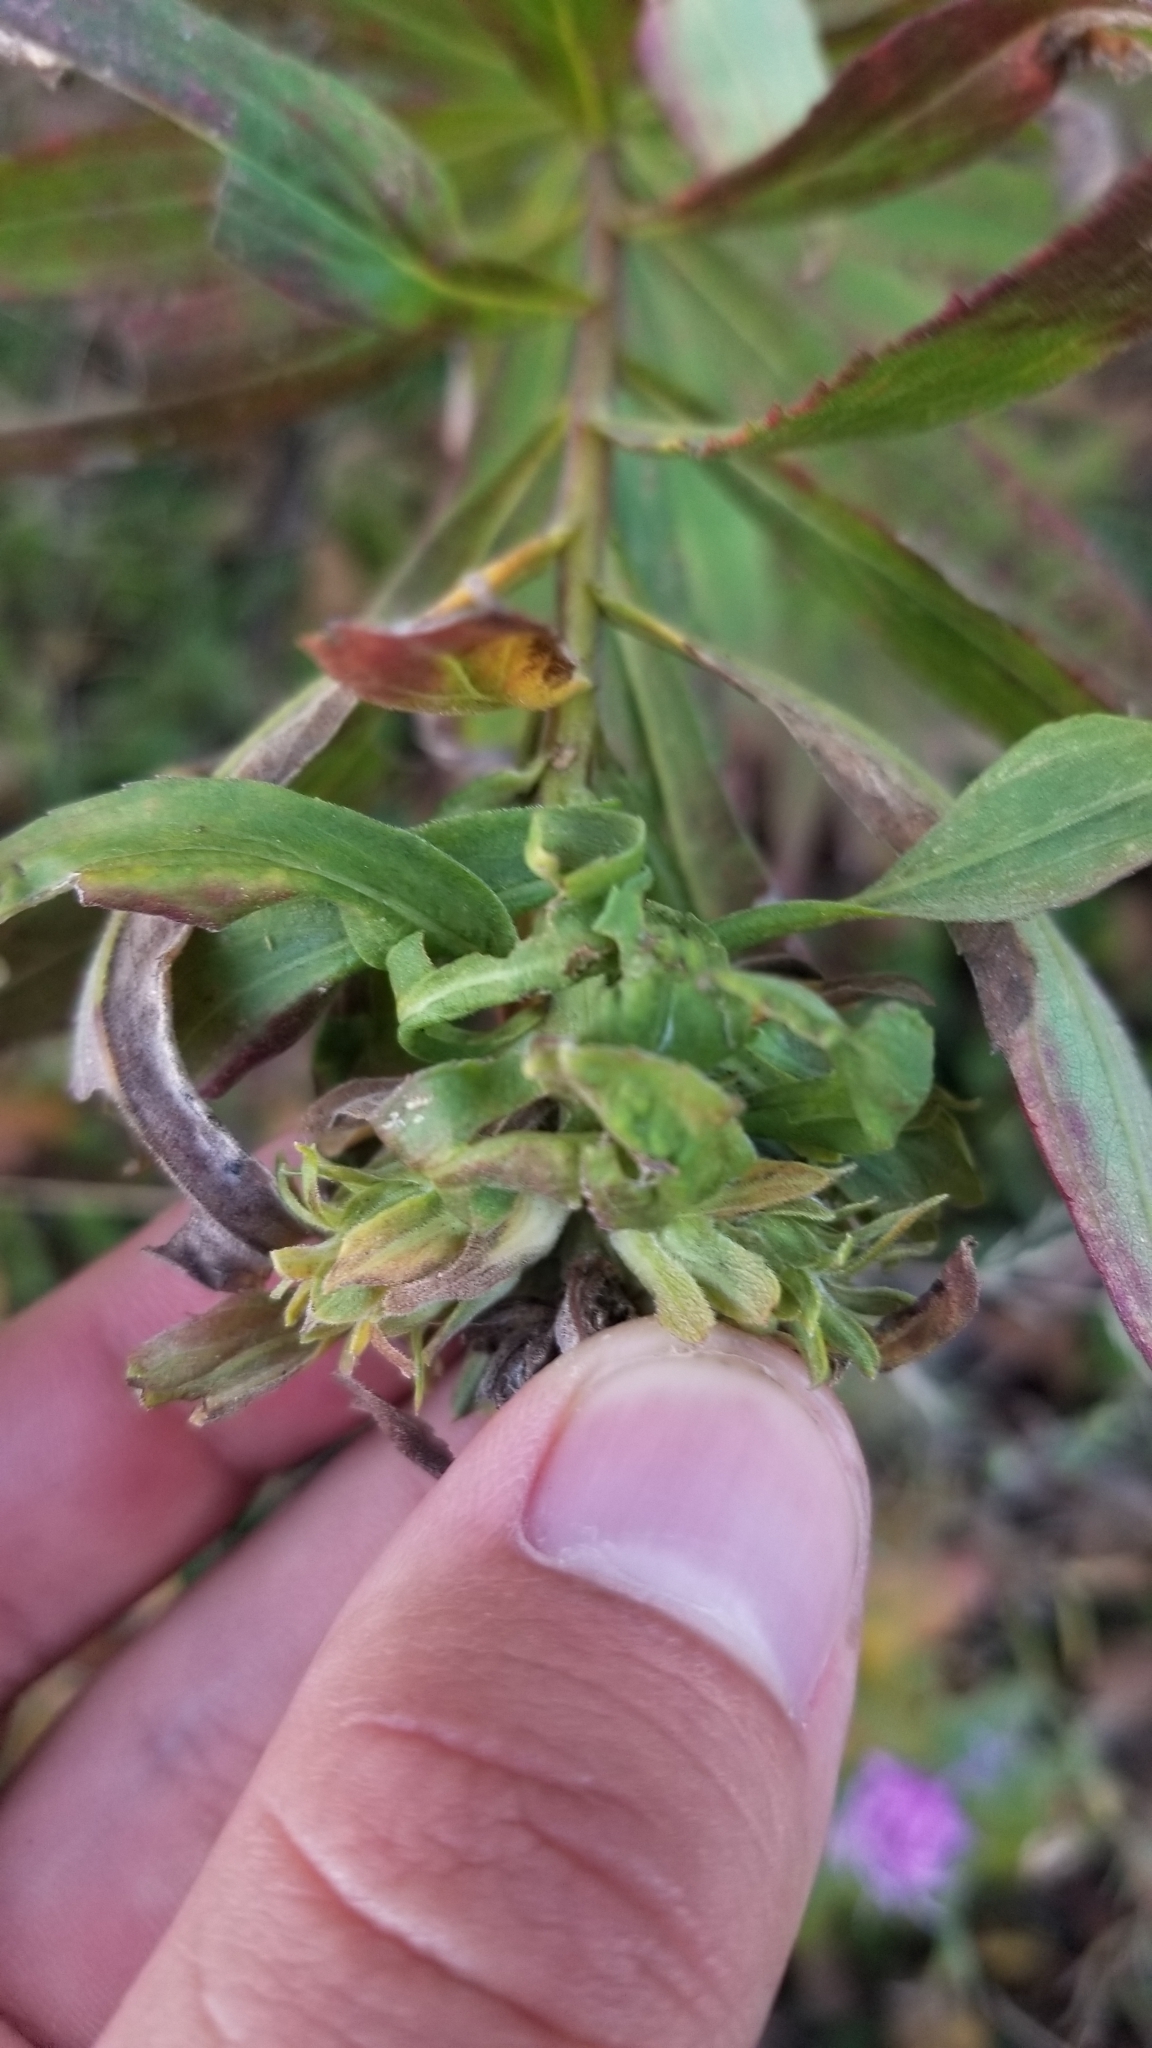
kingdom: Animalia
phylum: Arthropoda
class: Insecta
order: Diptera
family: Tephritidae
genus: Procecidochares
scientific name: Procecidochares atra
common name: Goldenrod brussels sprout gall fly
